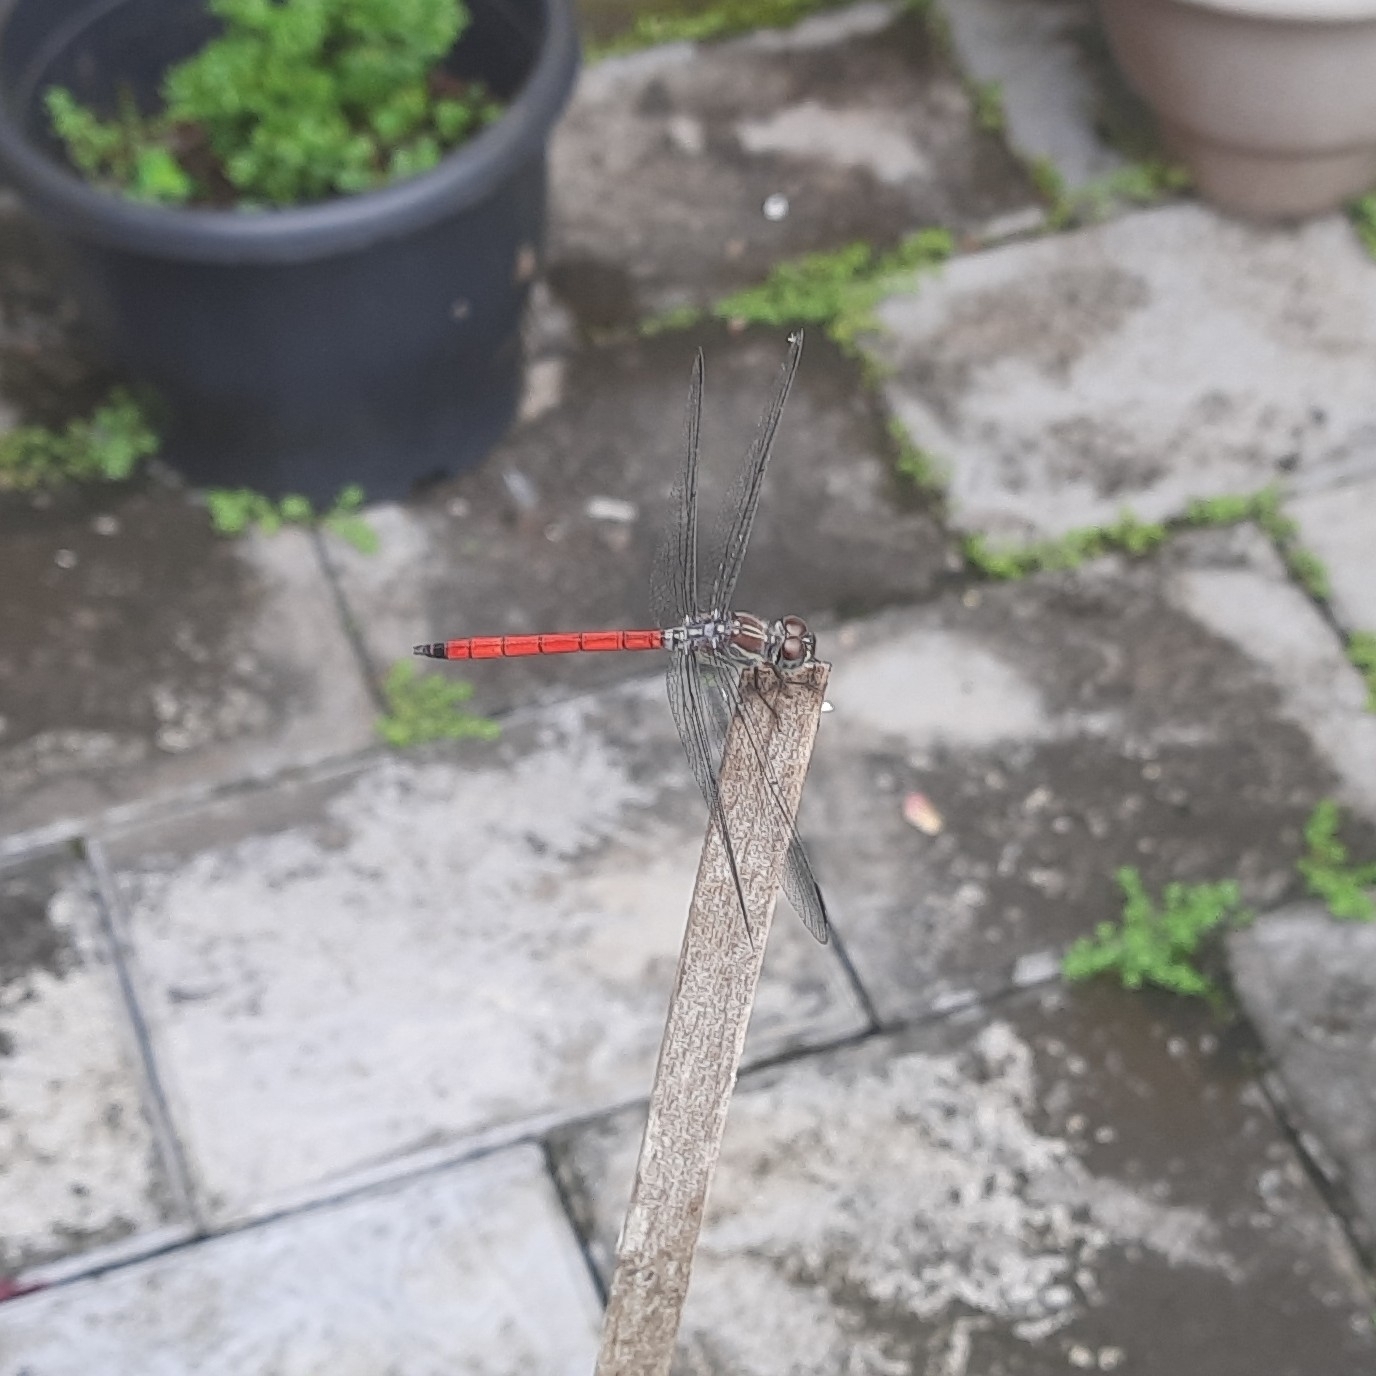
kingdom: Animalia
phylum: Arthropoda
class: Insecta
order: Odonata
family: Libellulidae
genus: Lathrecista
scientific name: Lathrecista asiatica
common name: Scarlet grenadier
